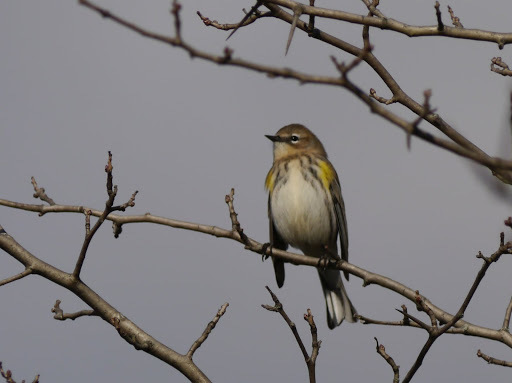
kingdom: Animalia
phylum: Chordata
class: Aves
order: Passeriformes
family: Parulidae
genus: Setophaga
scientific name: Setophaga coronata
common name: Myrtle warbler
